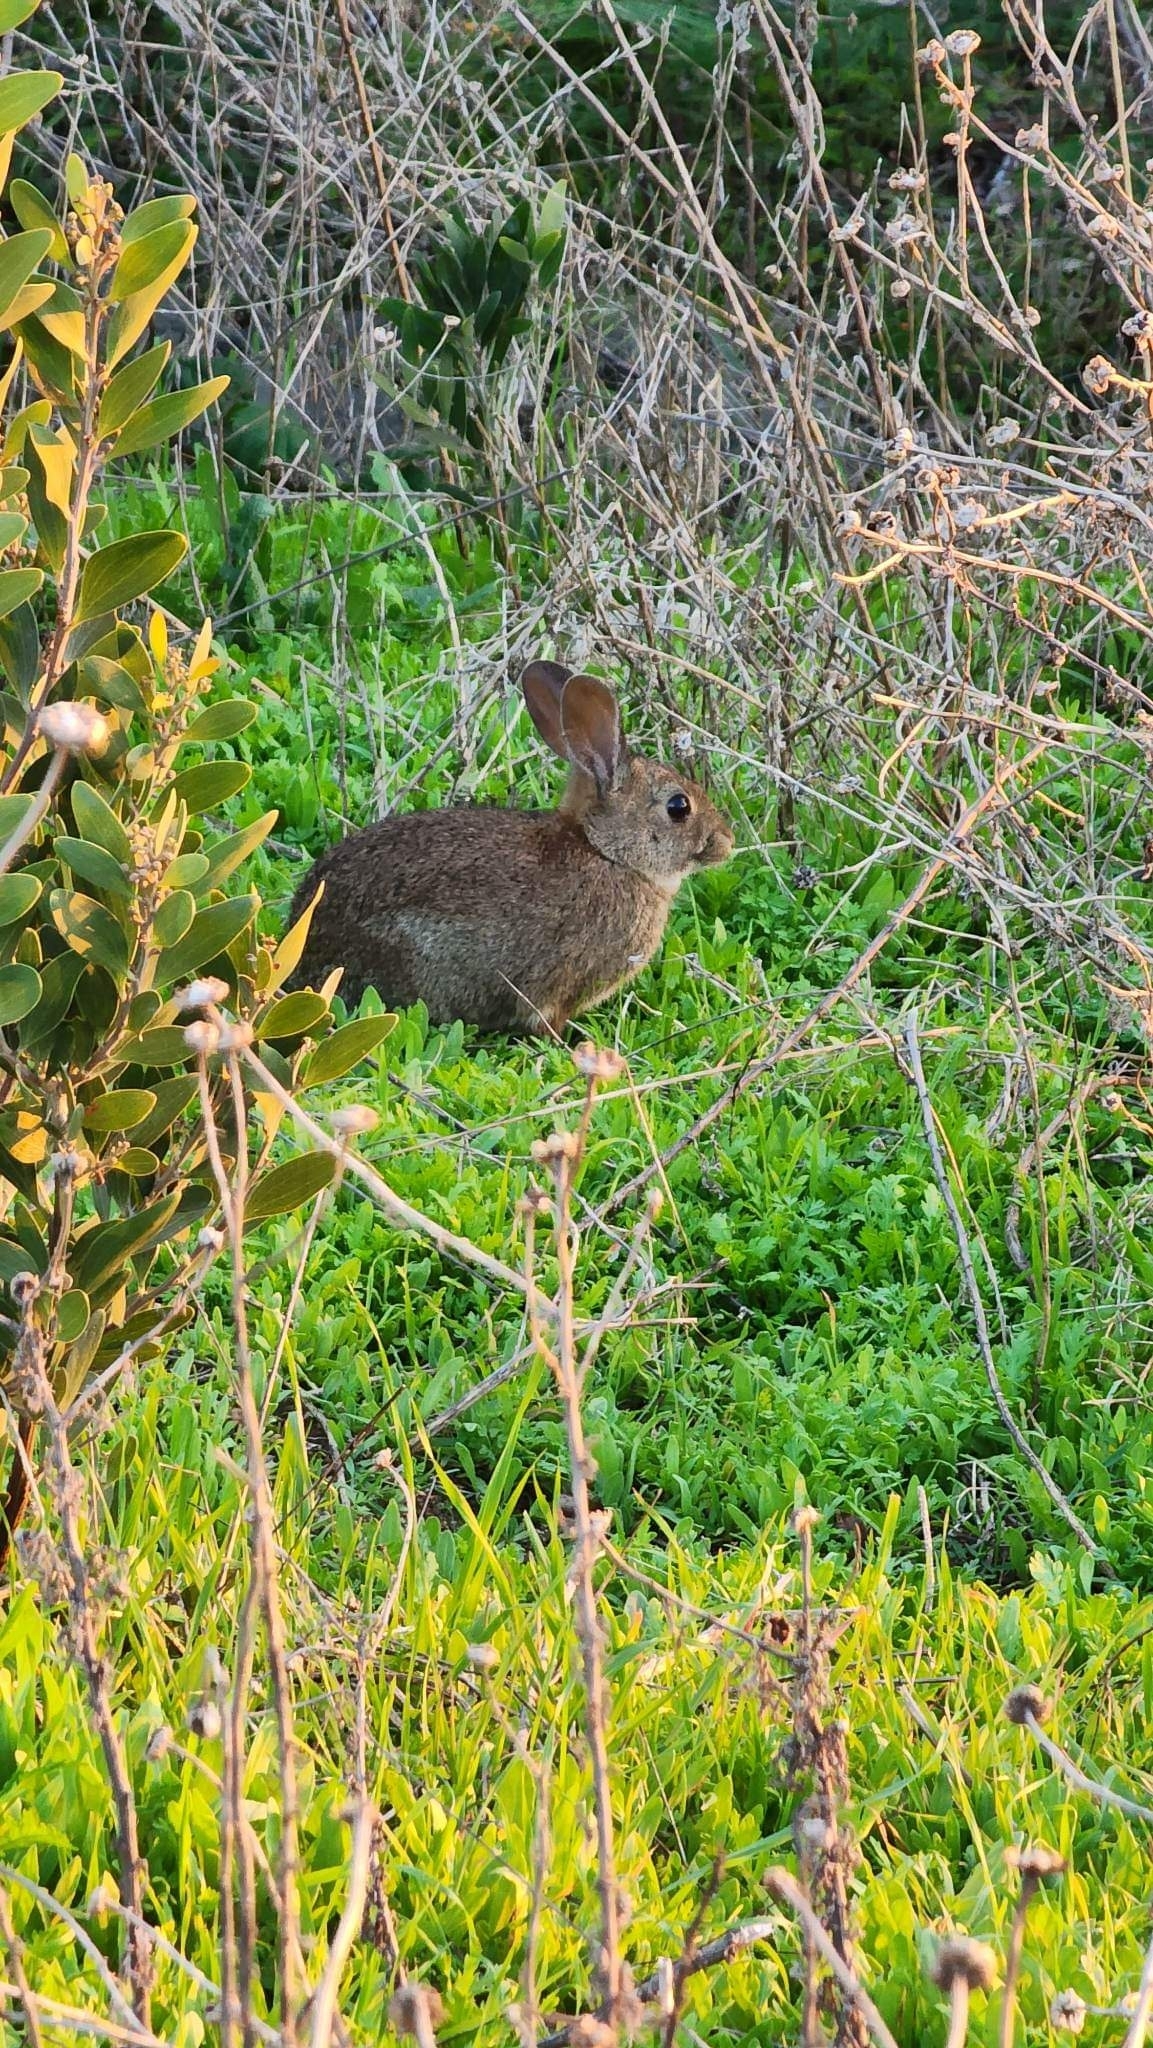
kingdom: Animalia
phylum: Chordata
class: Mammalia
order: Lagomorpha
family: Leporidae
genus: Sylvilagus
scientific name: Sylvilagus bachmani
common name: Brush rabbit
